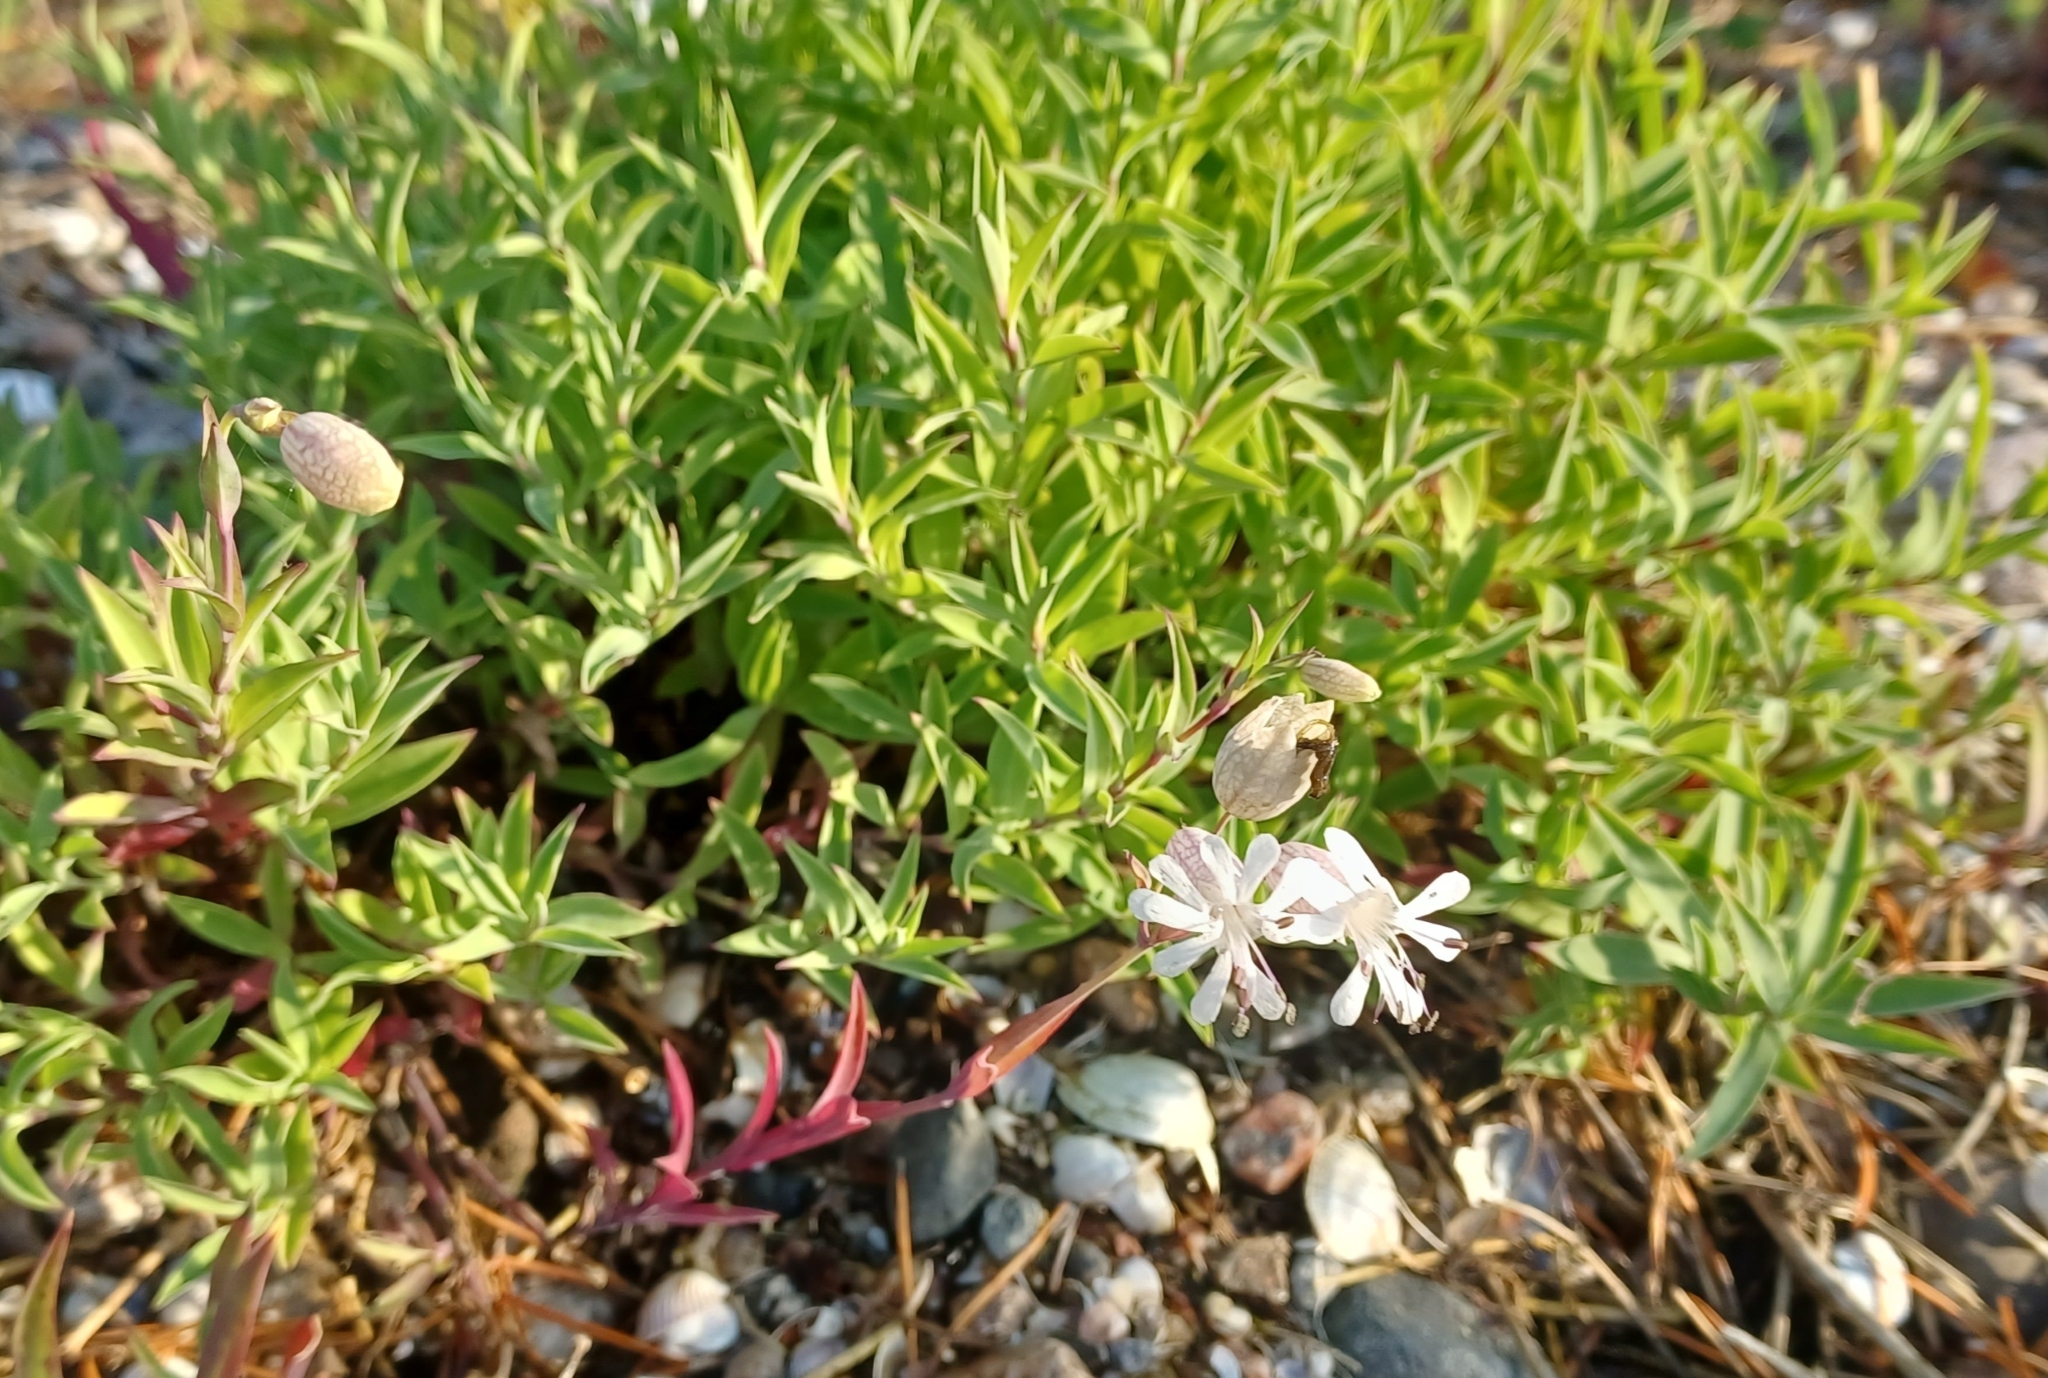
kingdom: Plantae
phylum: Tracheophyta
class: Magnoliopsida
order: Caryophyllales
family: Caryophyllaceae
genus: Silene
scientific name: Silene uniflora
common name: Sea campion
